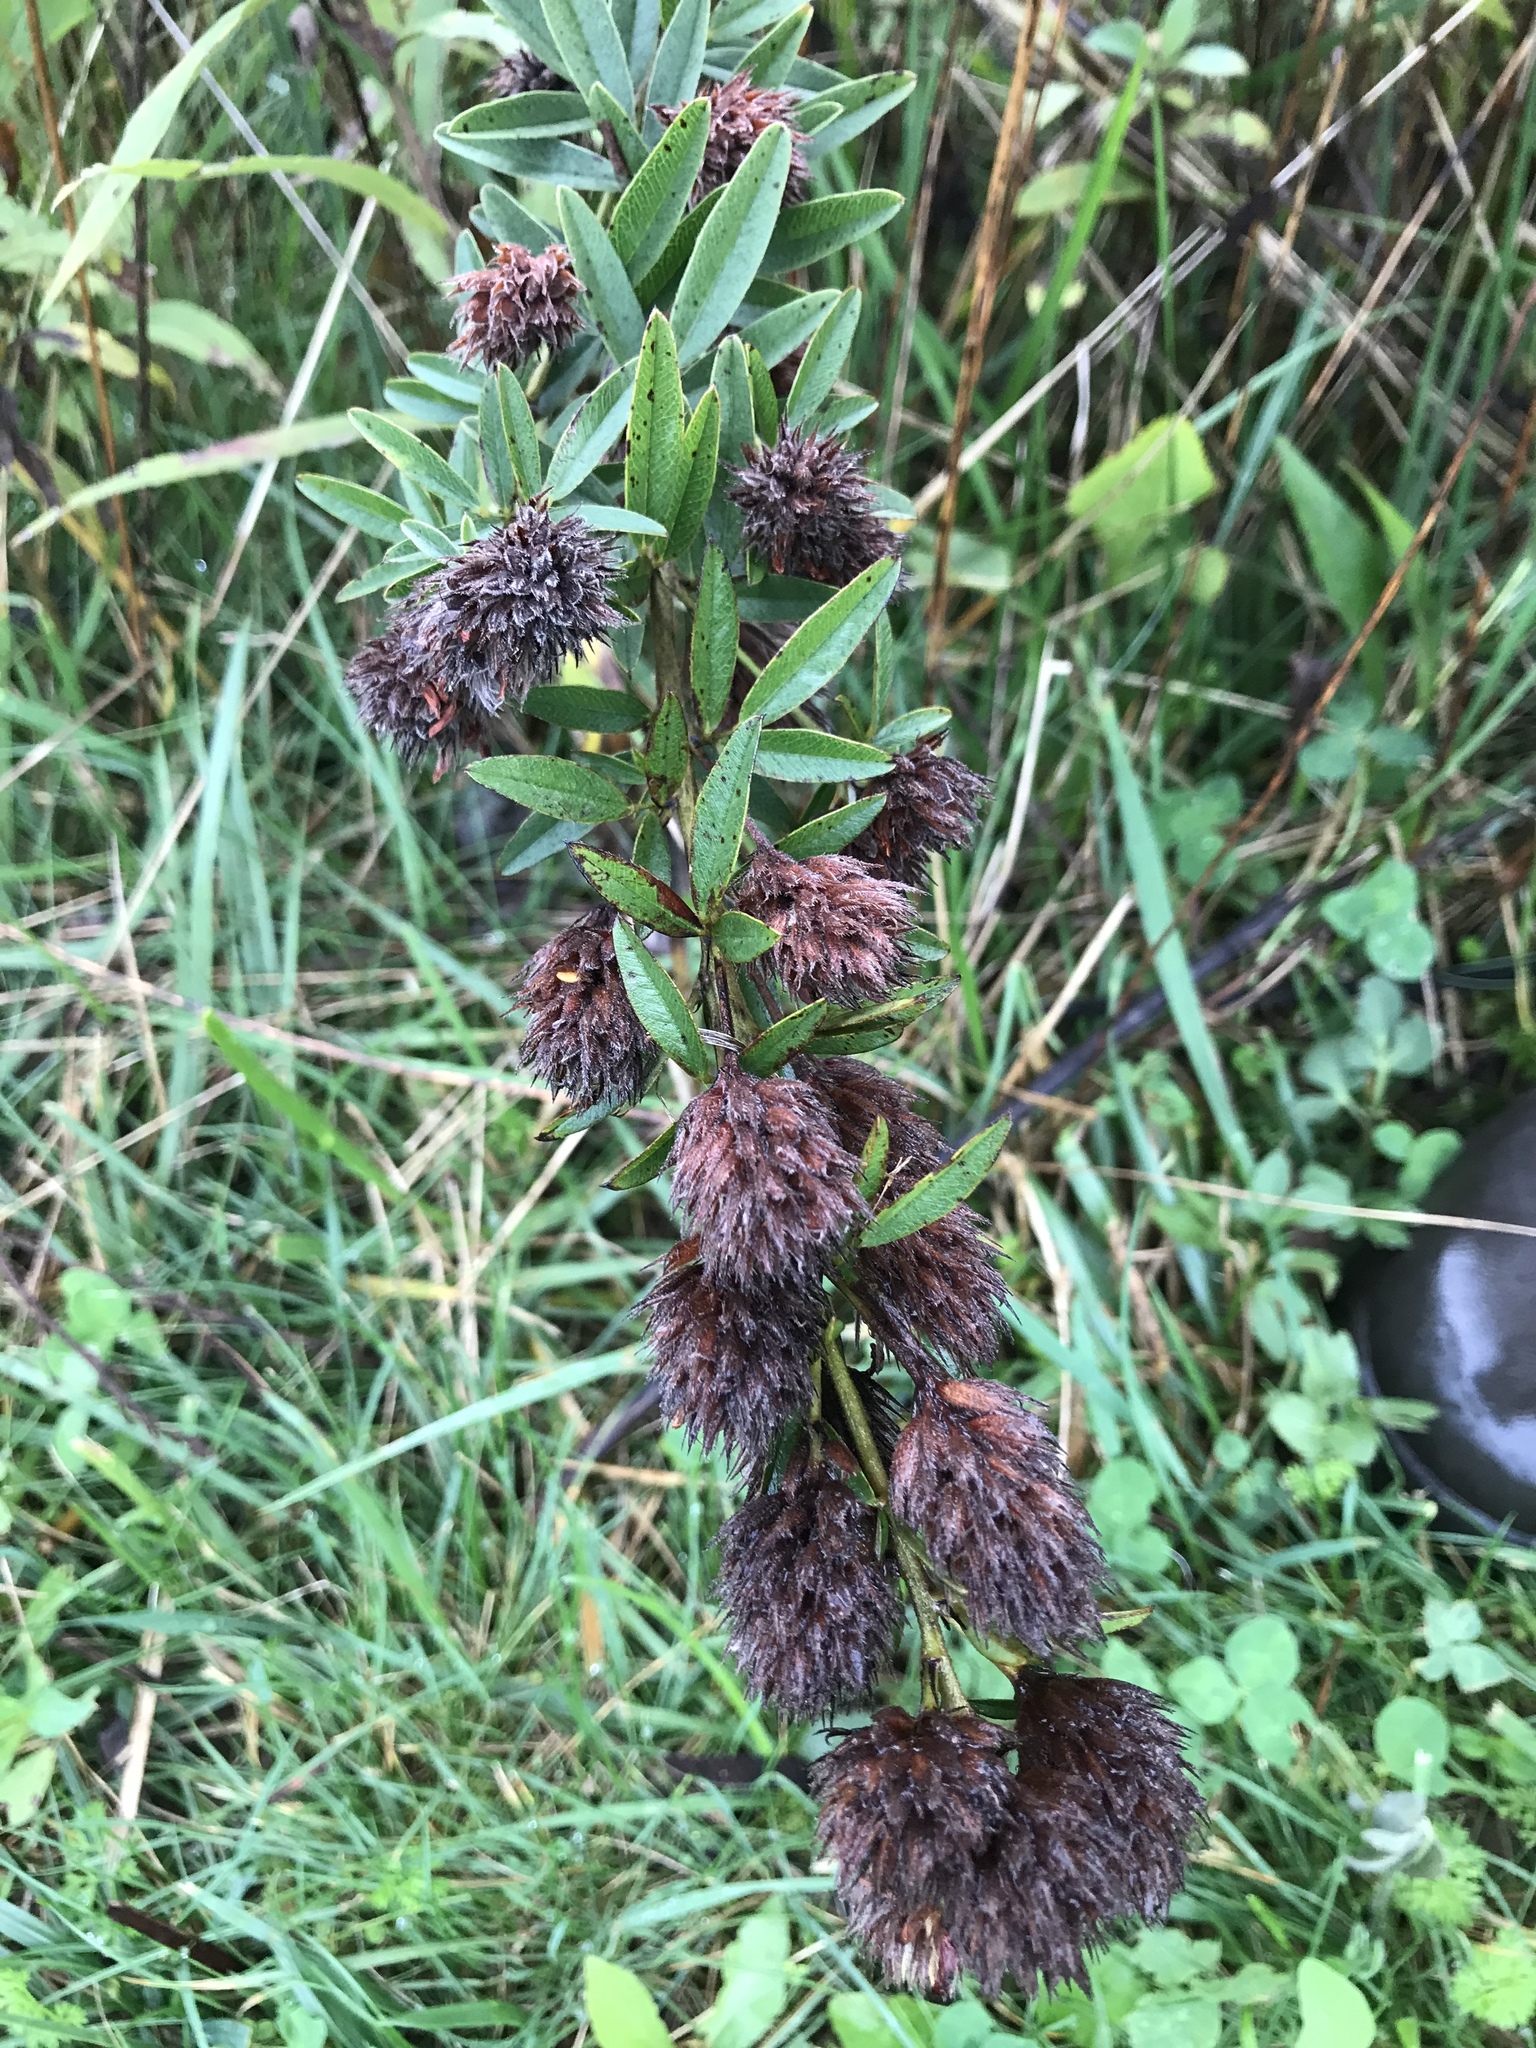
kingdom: Plantae
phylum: Tracheophyta
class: Magnoliopsida
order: Fabales
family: Fabaceae
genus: Lespedeza
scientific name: Lespedeza capitata
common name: Dusty clover
